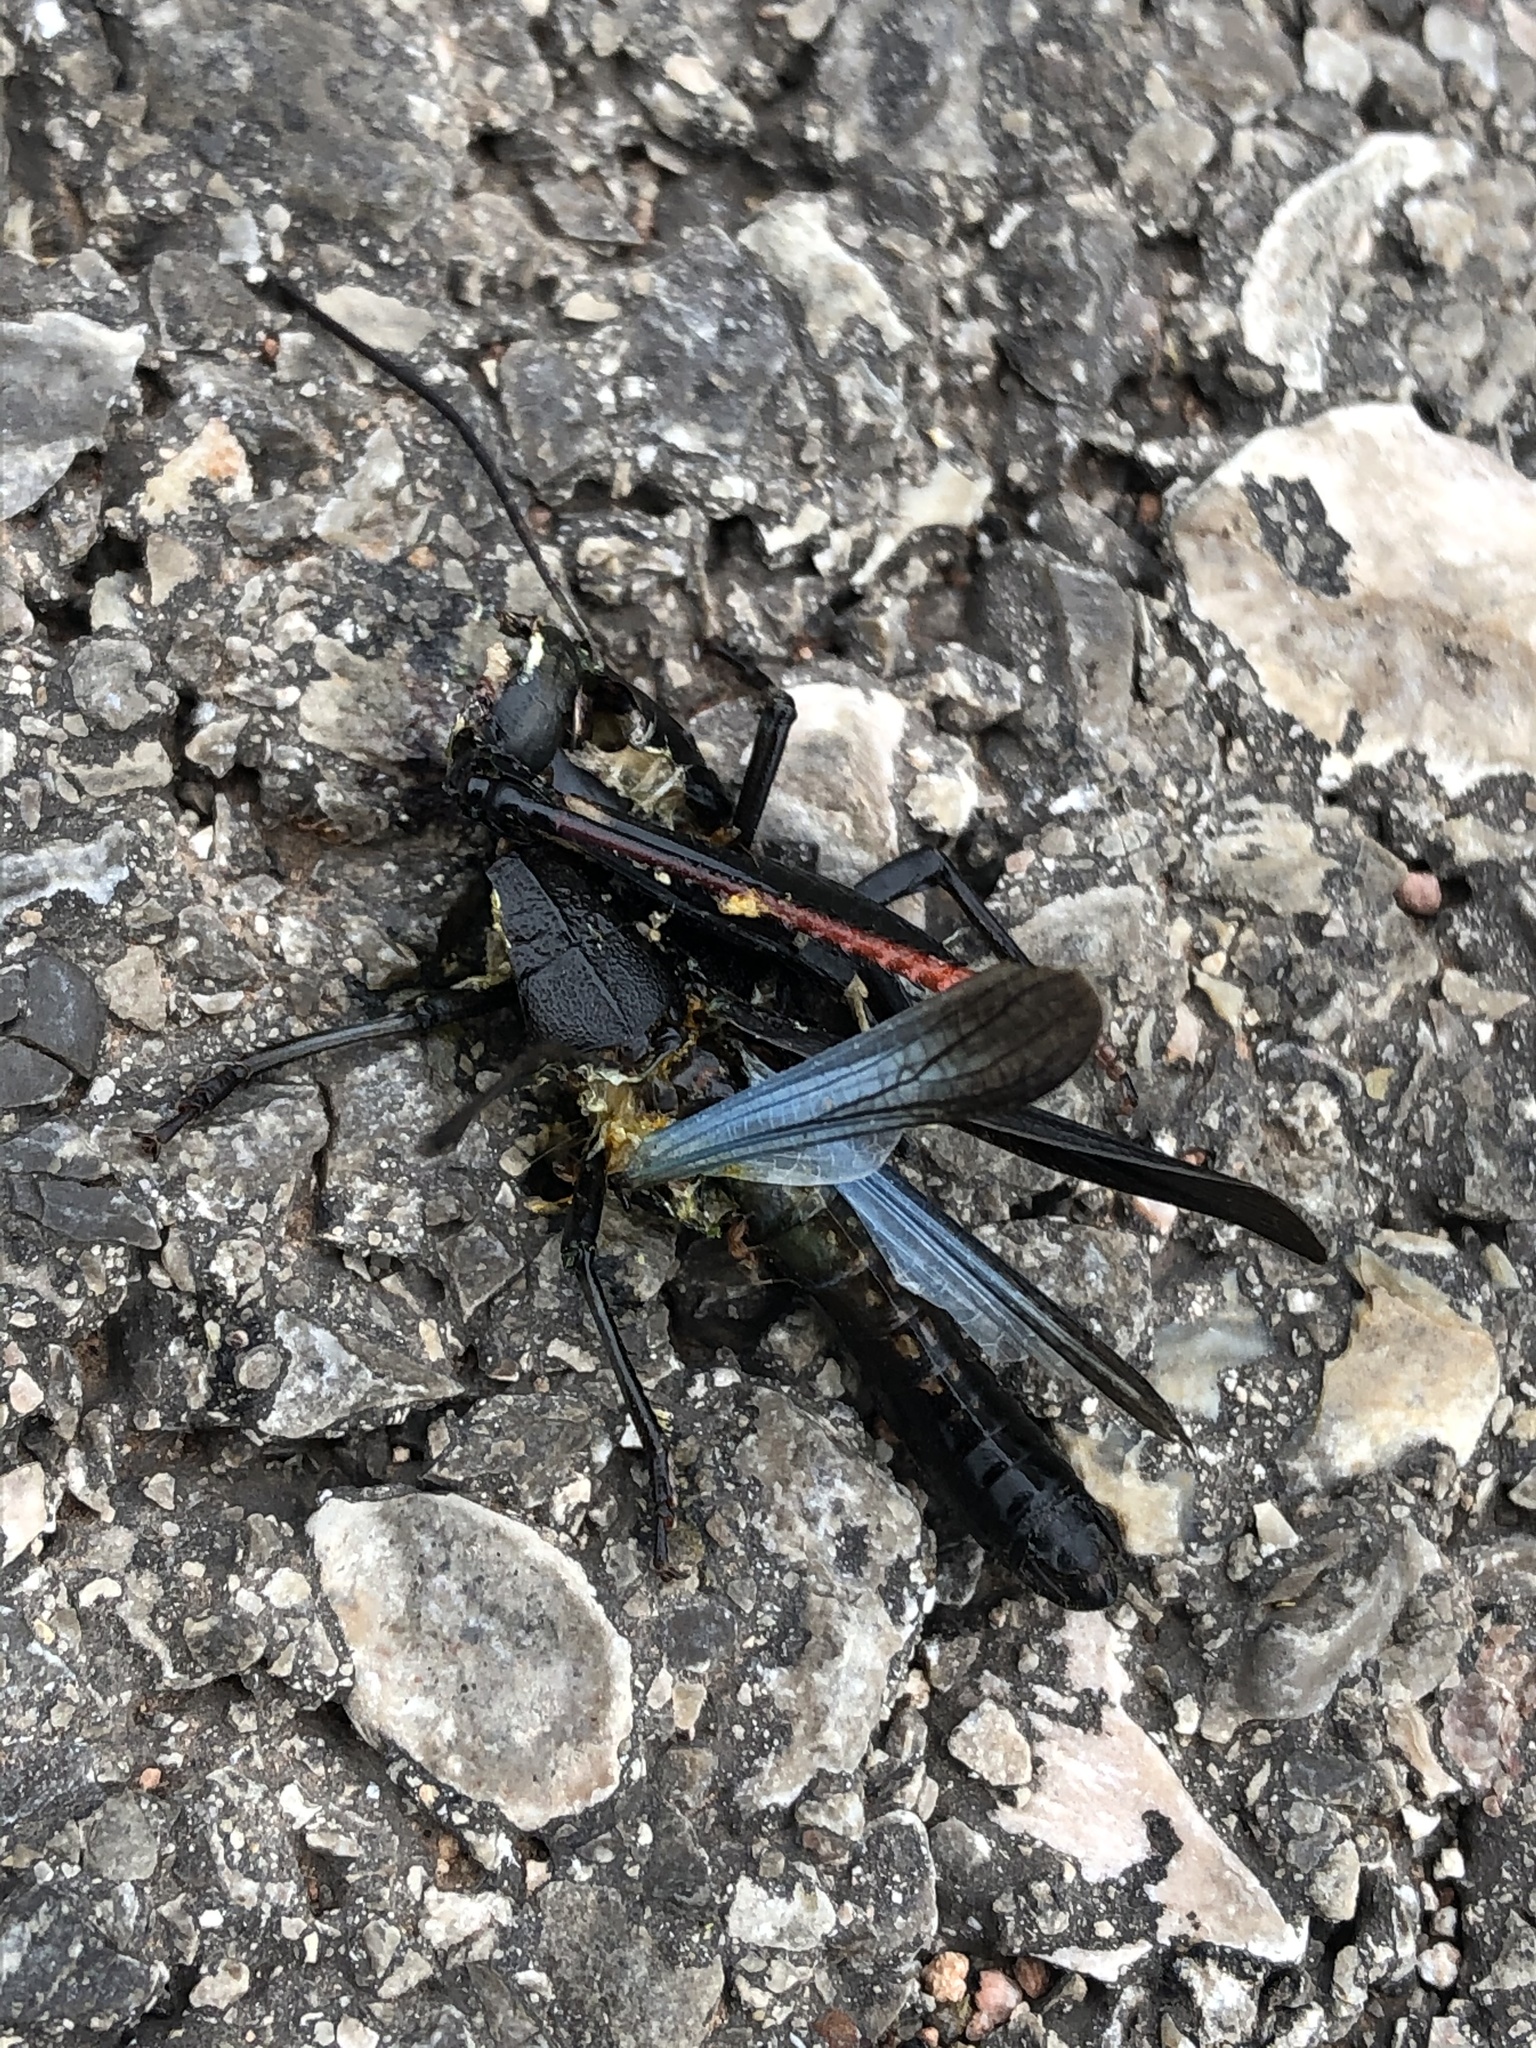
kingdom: Animalia
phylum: Arthropoda
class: Insecta
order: Orthoptera
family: Acrididae
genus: Boopedon
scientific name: Boopedon nubilum
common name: Ebony grasshopper
